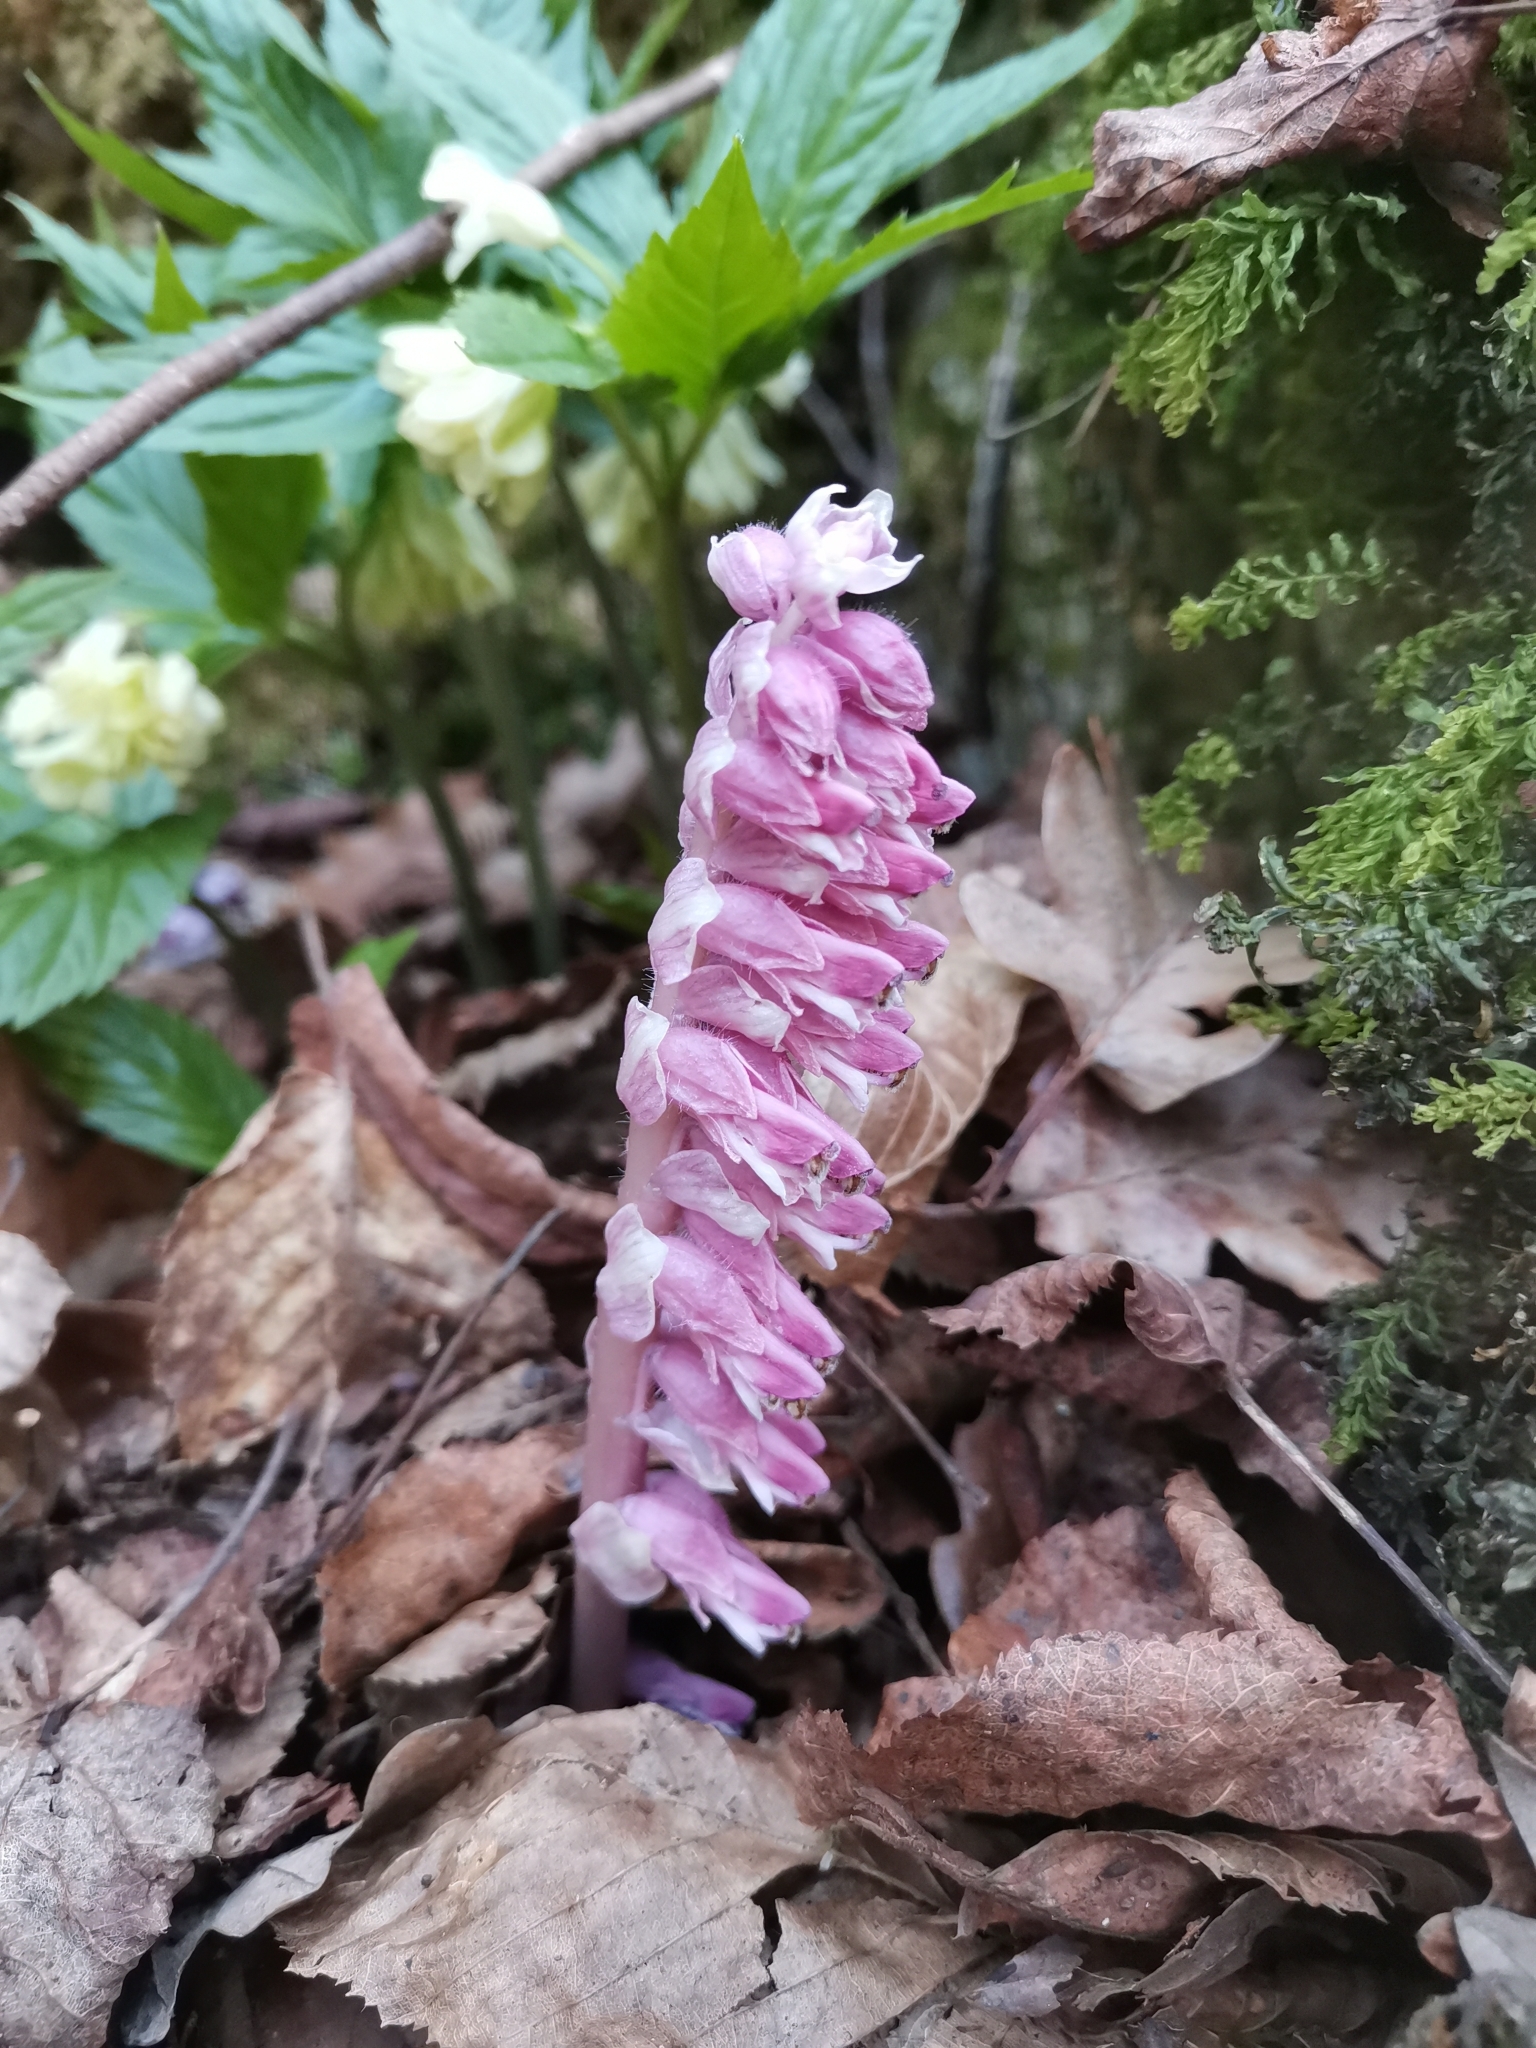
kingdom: Plantae
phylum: Tracheophyta
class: Magnoliopsida
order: Lamiales
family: Orobanchaceae
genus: Lathraea
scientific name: Lathraea squamaria
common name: Toothwort
